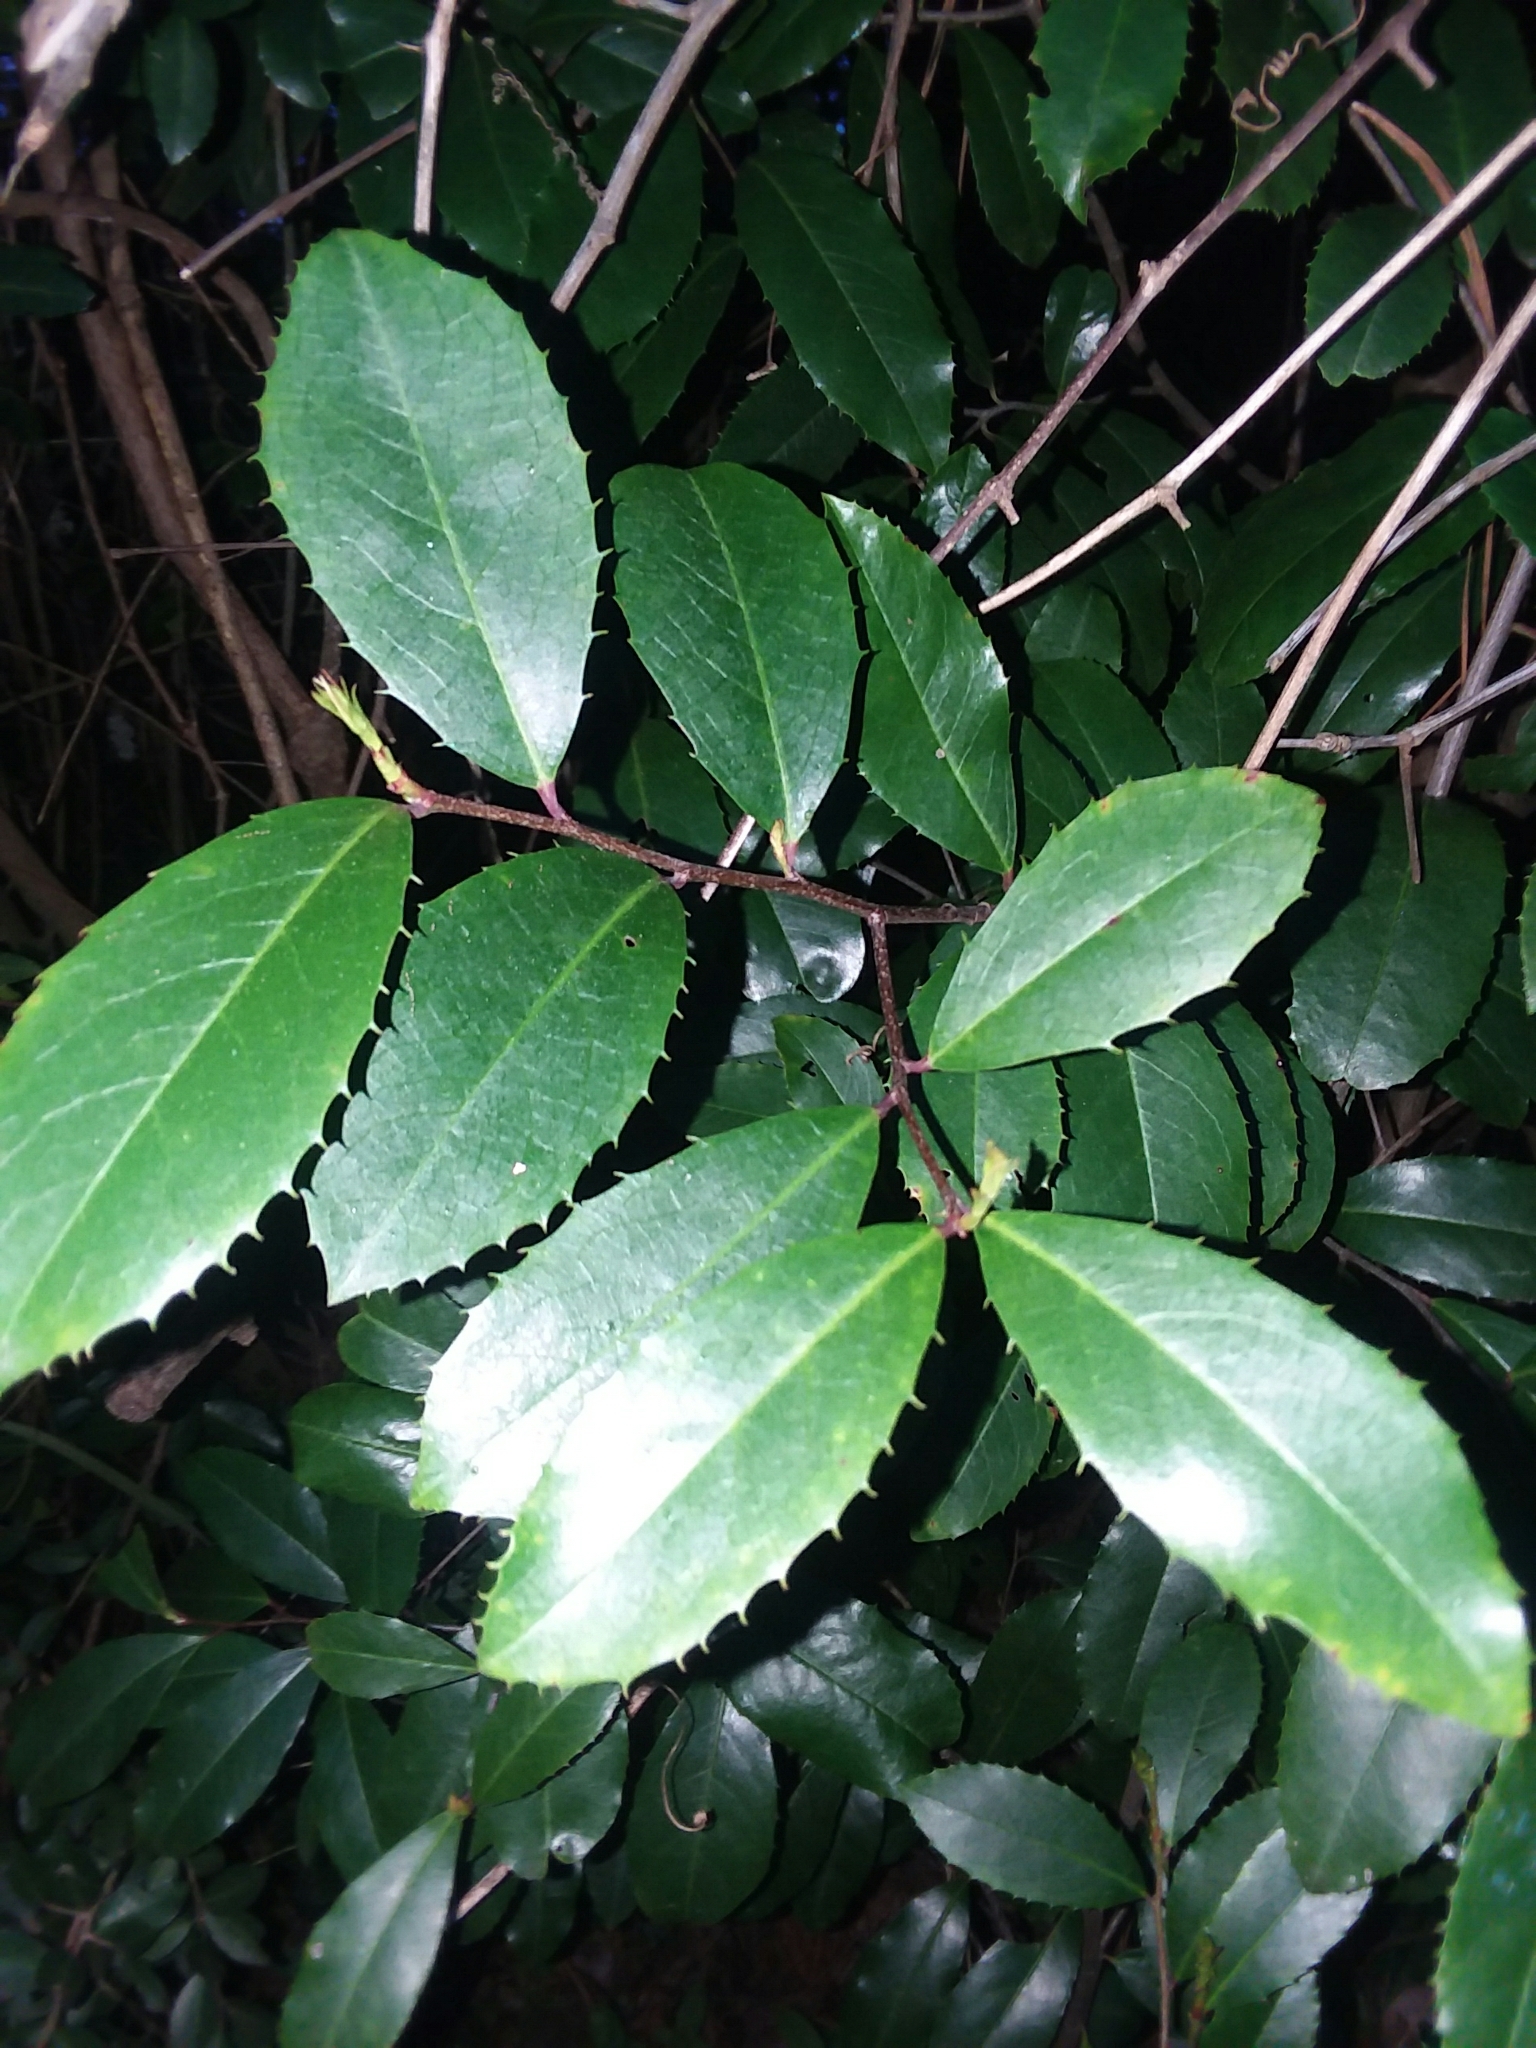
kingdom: Plantae
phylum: Tracheophyta
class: Magnoliopsida
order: Rosales
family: Rosaceae
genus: Prunus
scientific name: Prunus caroliniana
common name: Carolina laurel cherry
